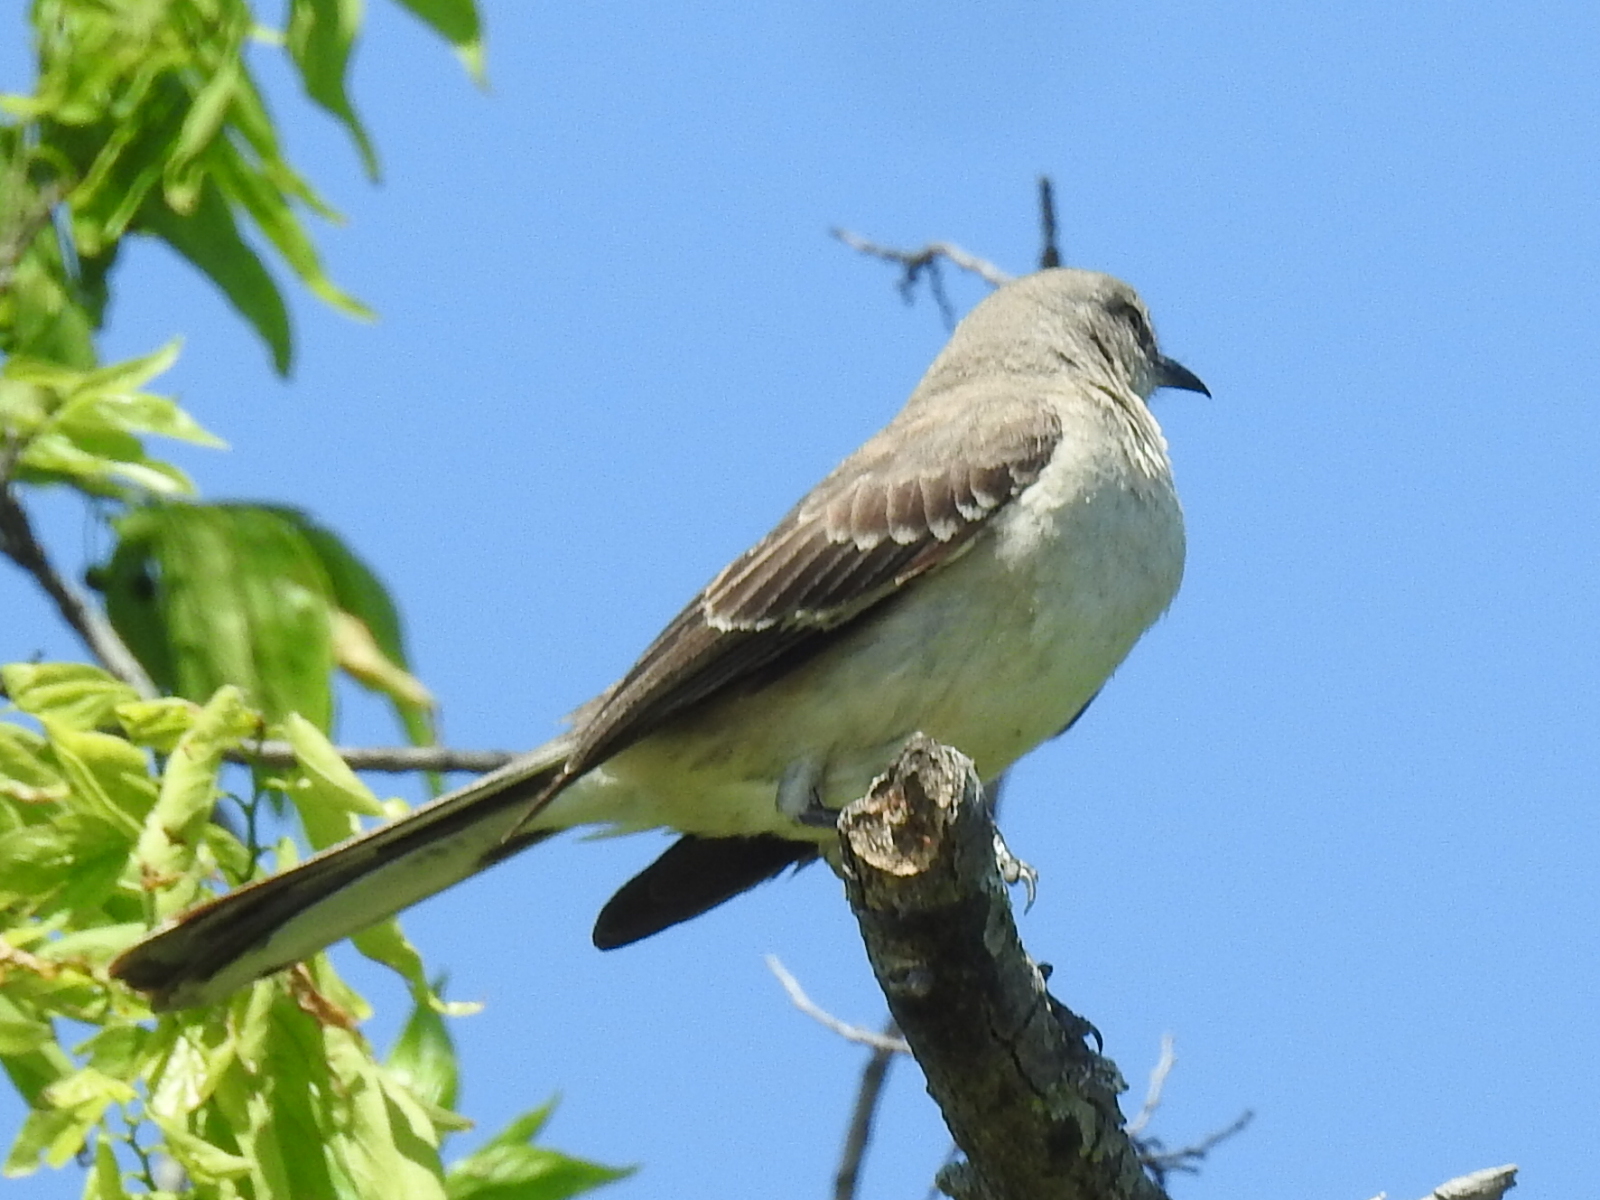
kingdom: Animalia
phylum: Chordata
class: Aves
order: Passeriformes
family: Mimidae
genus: Mimus
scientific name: Mimus polyglottos
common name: Northern mockingbird
